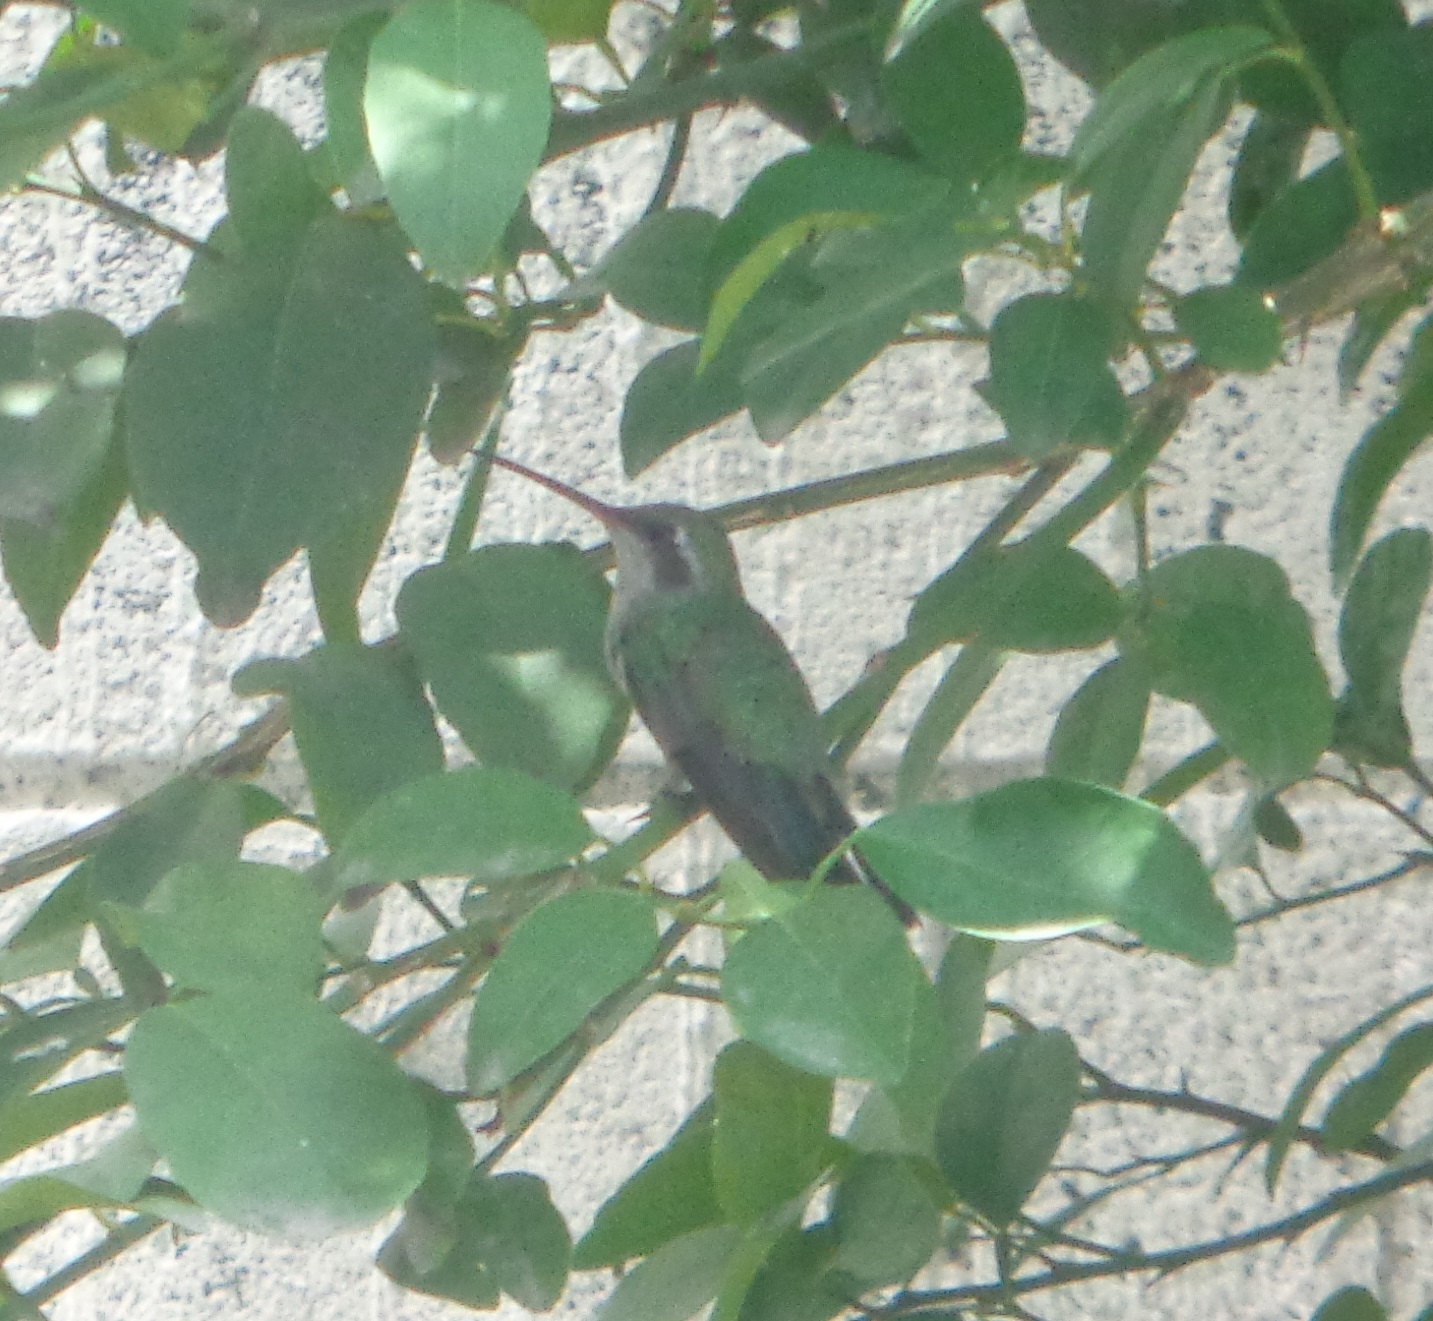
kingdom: Animalia
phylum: Chordata
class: Aves
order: Apodiformes
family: Trochilidae
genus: Cynanthus
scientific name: Cynanthus latirostris
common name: Broad-billed hummingbird
